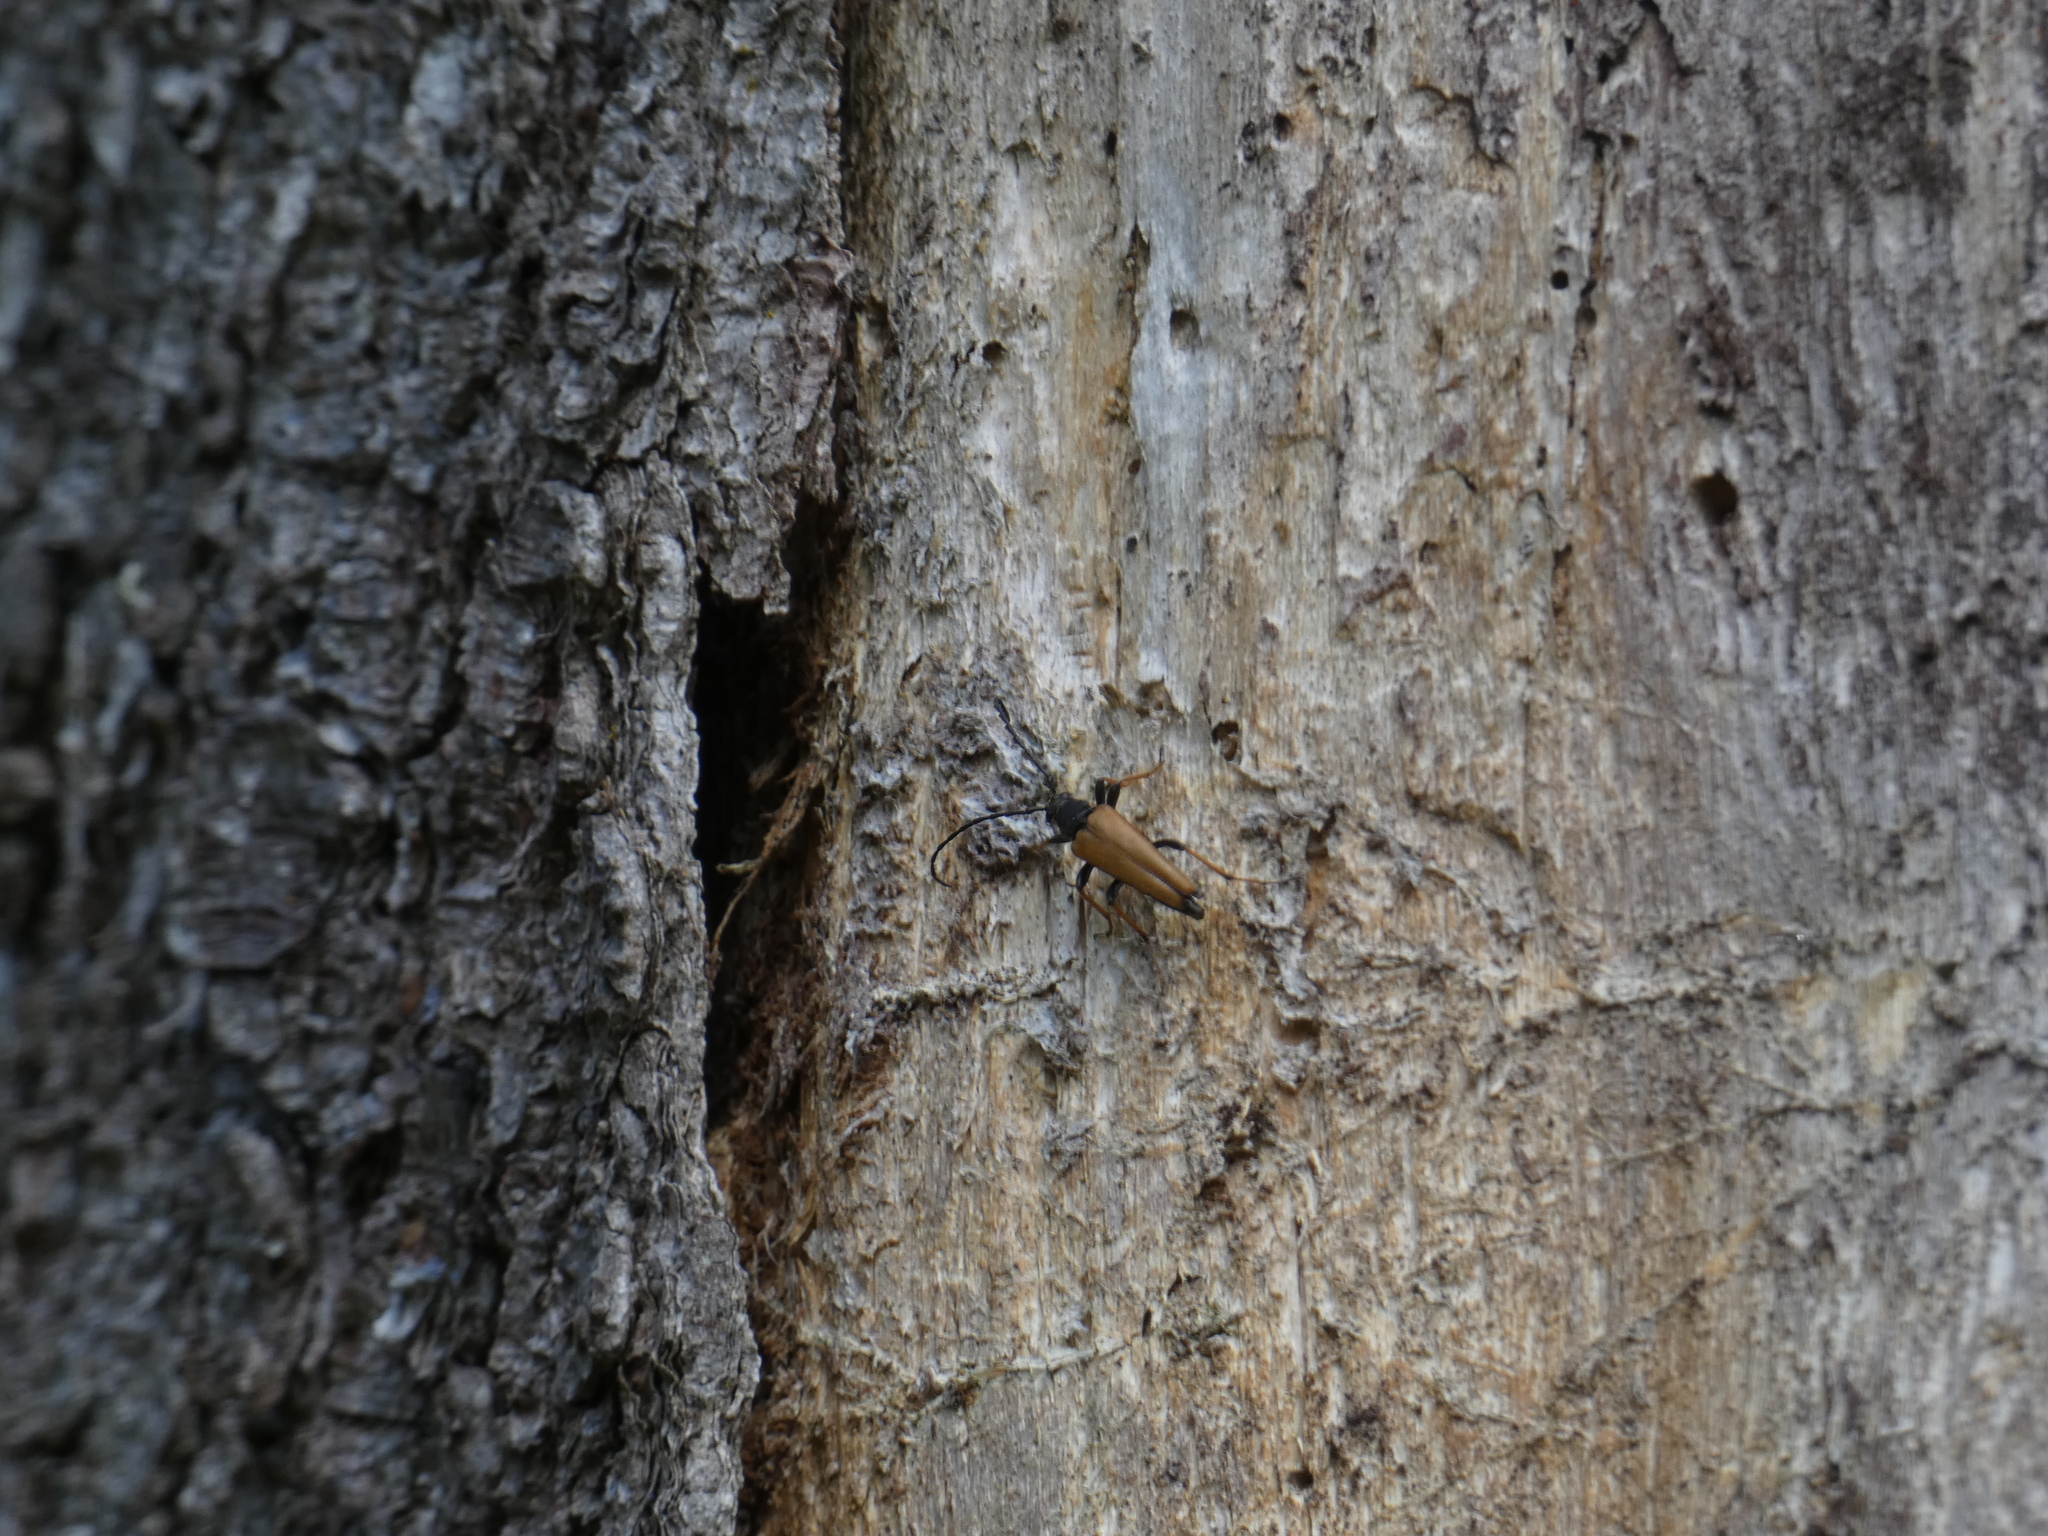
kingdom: Animalia
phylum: Arthropoda
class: Insecta
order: Coleoptera
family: Cerambycidae
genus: Stictoleptura
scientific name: Stictoleptura rubra
